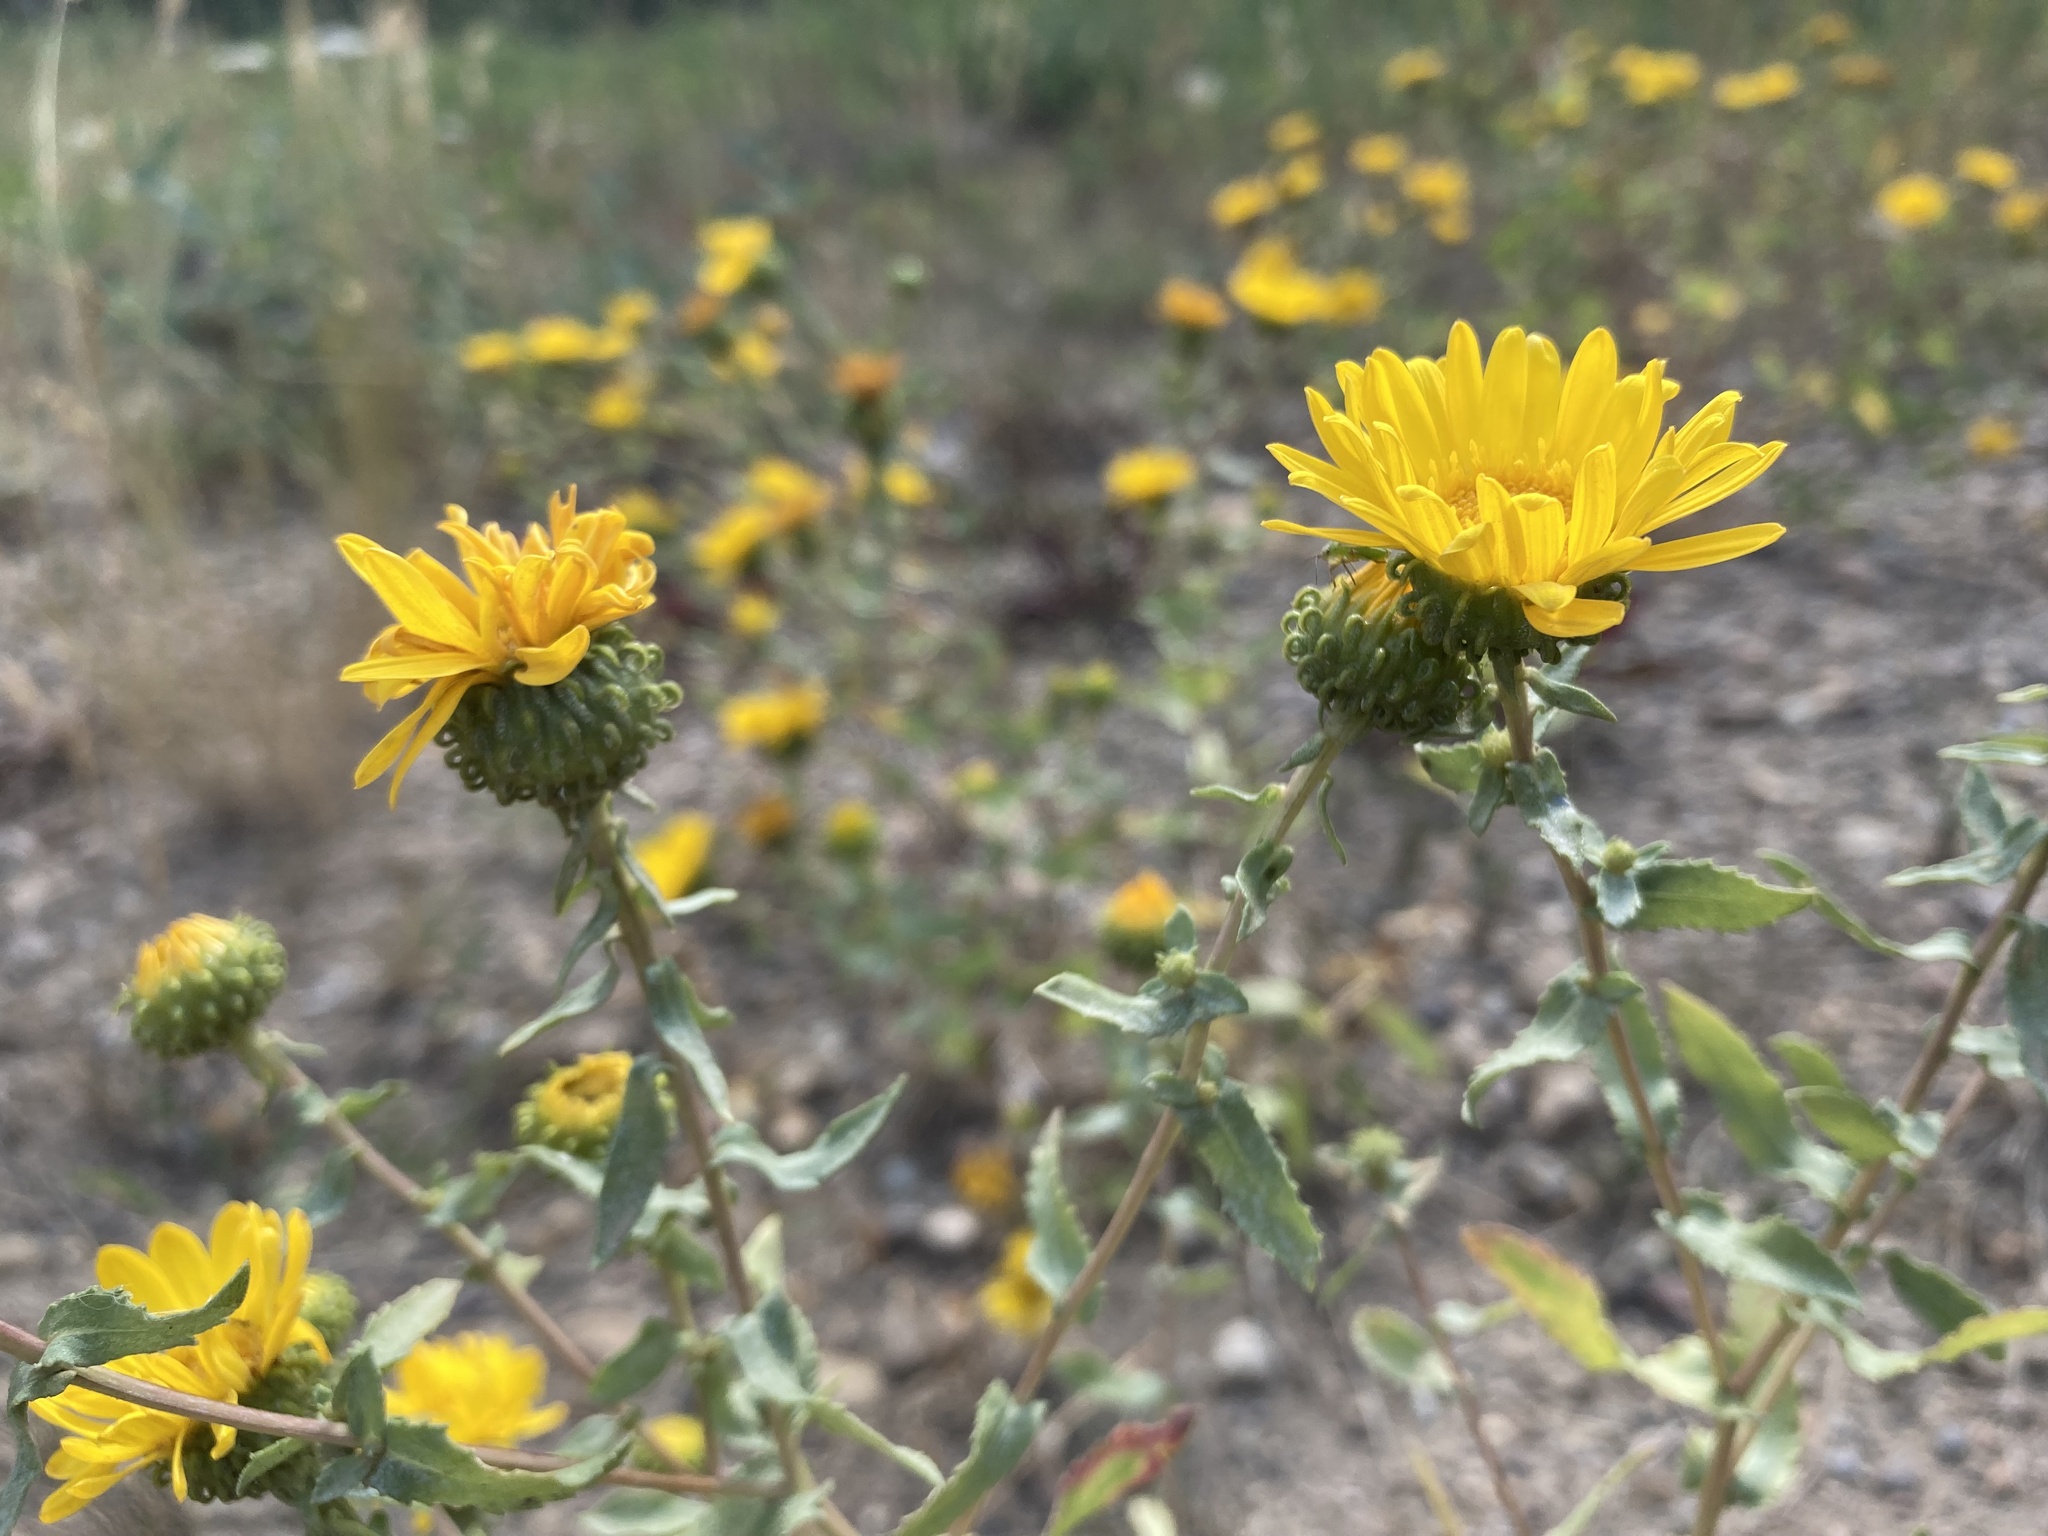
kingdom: Plantae
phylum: Tracheophyta
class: Magnoliopsida
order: Asterales
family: Asteraceae
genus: Grindelia
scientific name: Grindelia squarrosa
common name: Curly-cup gumweed
